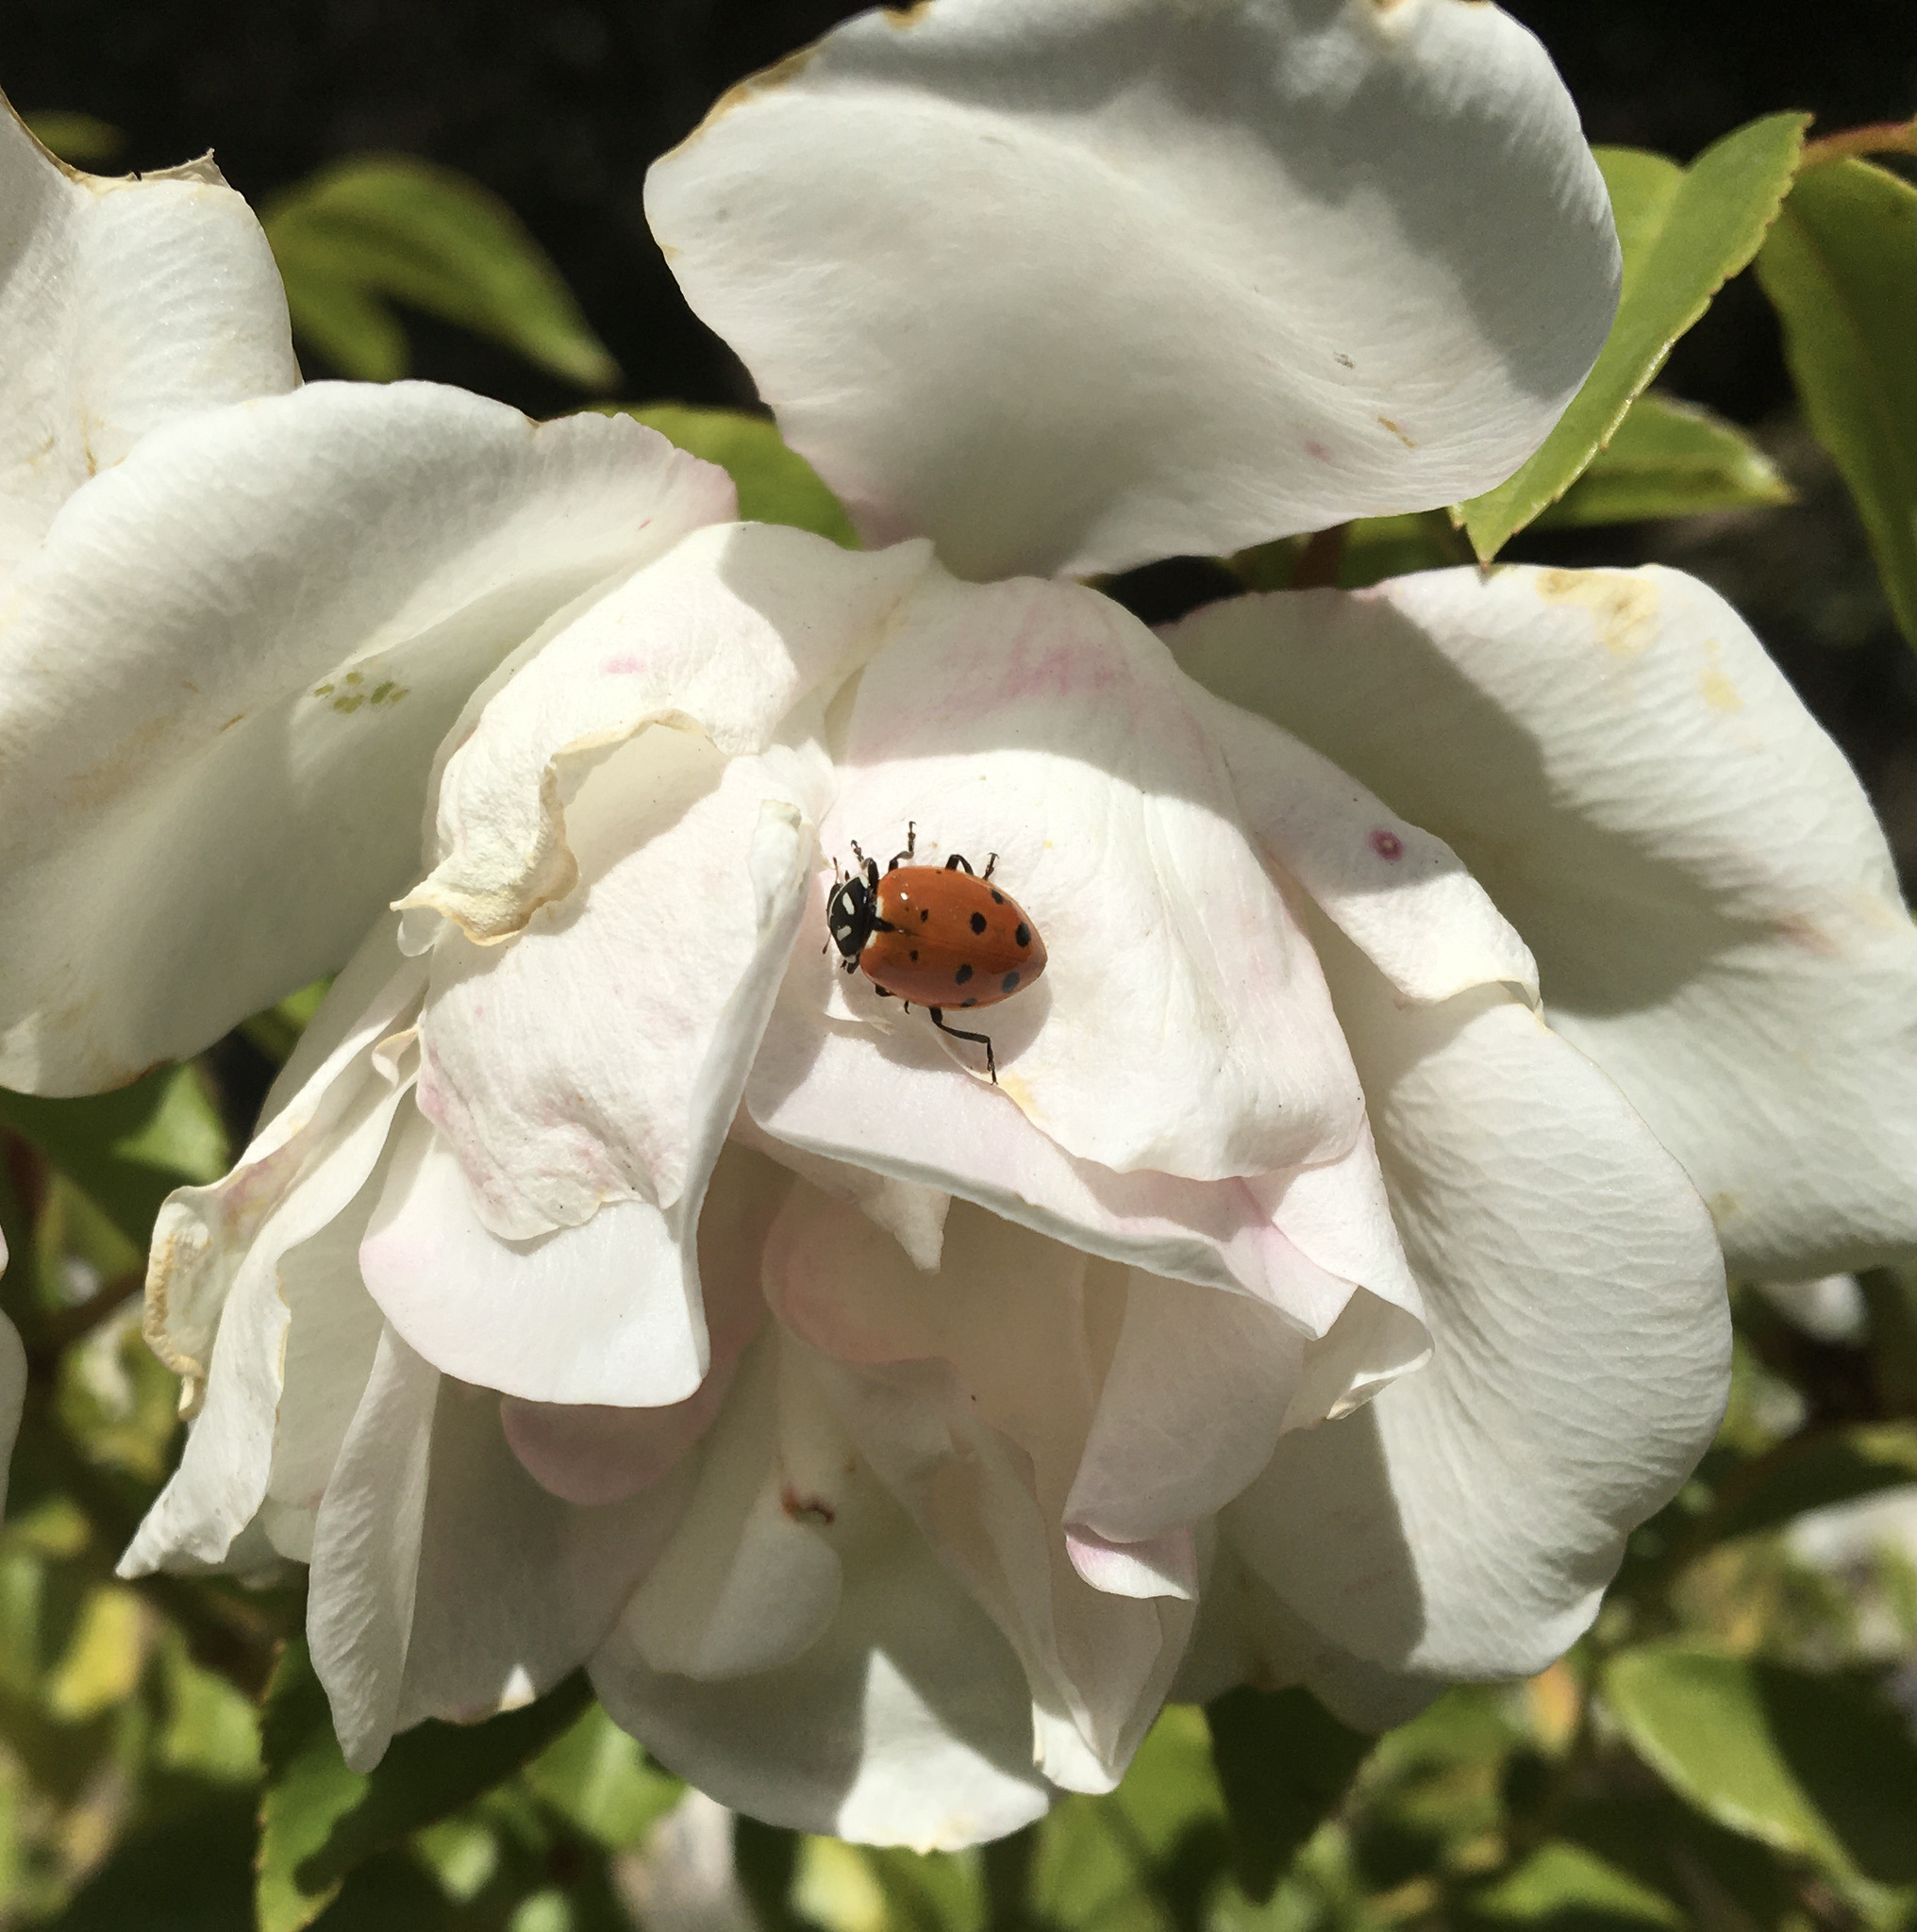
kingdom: Animalia
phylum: Arthropoda
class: Insecta
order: Coleoptera
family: Coccinellidae
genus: Hippodamia
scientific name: Hippodamia convergens
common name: Convergent lady beetle
